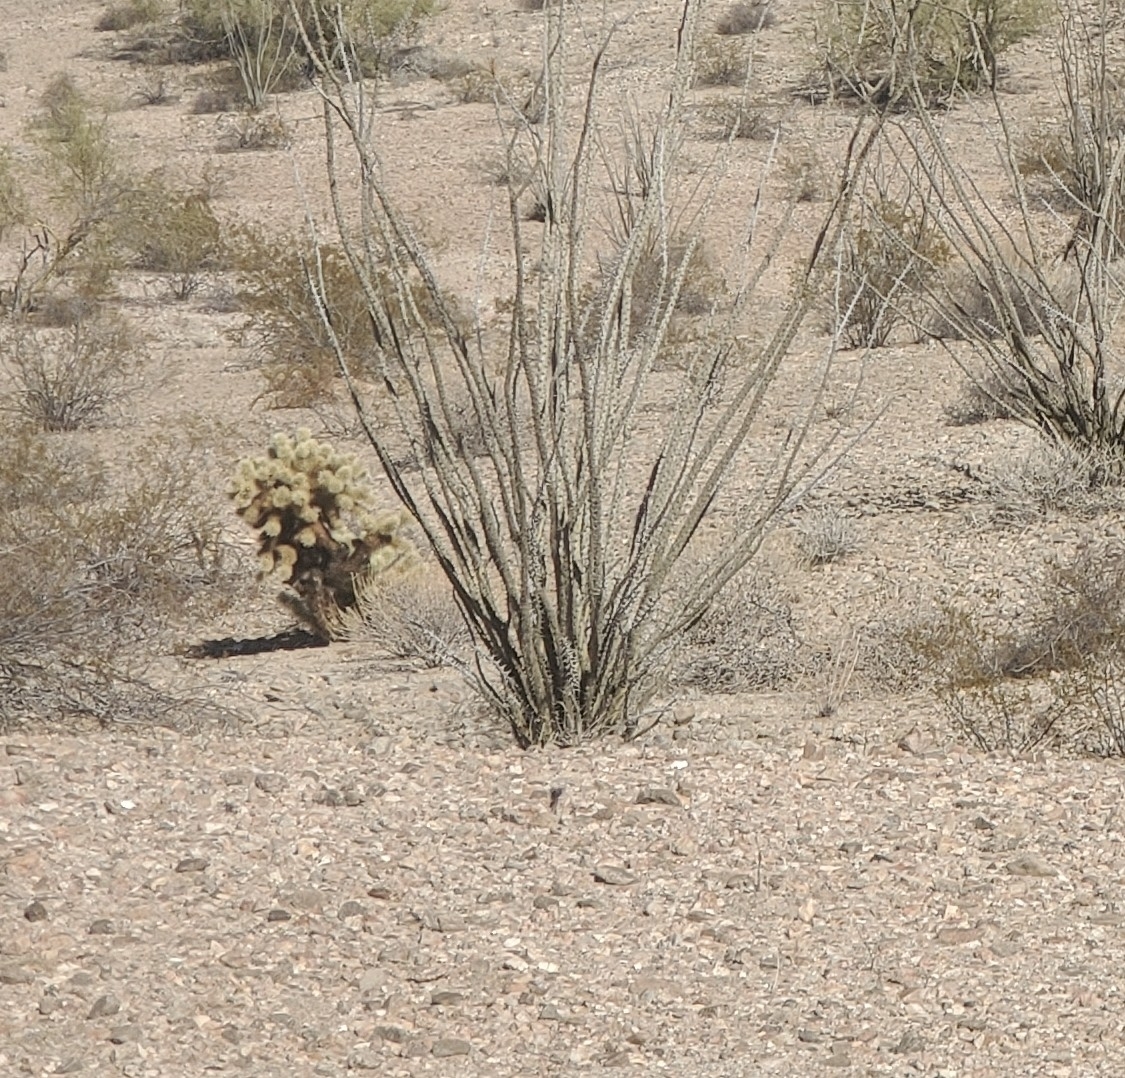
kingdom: Plantae
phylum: Tracheophyta
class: Magnoliopsida
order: Ericales
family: Fouquieriaceae
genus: Fouquieria
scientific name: Fouquieria splendens
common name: Vine-cactus
